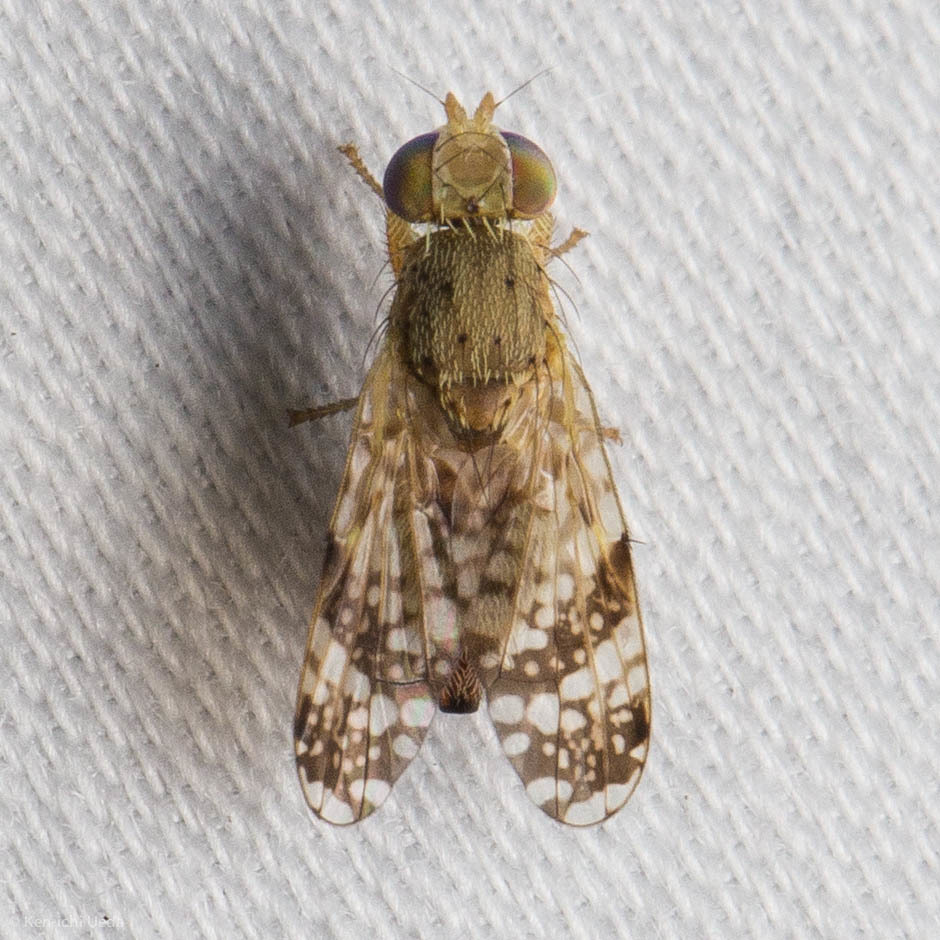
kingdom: Animalia
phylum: Arthropoda
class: Insecta
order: Diptera
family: Tephritidae
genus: Tephritis
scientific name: Tephritis californica
